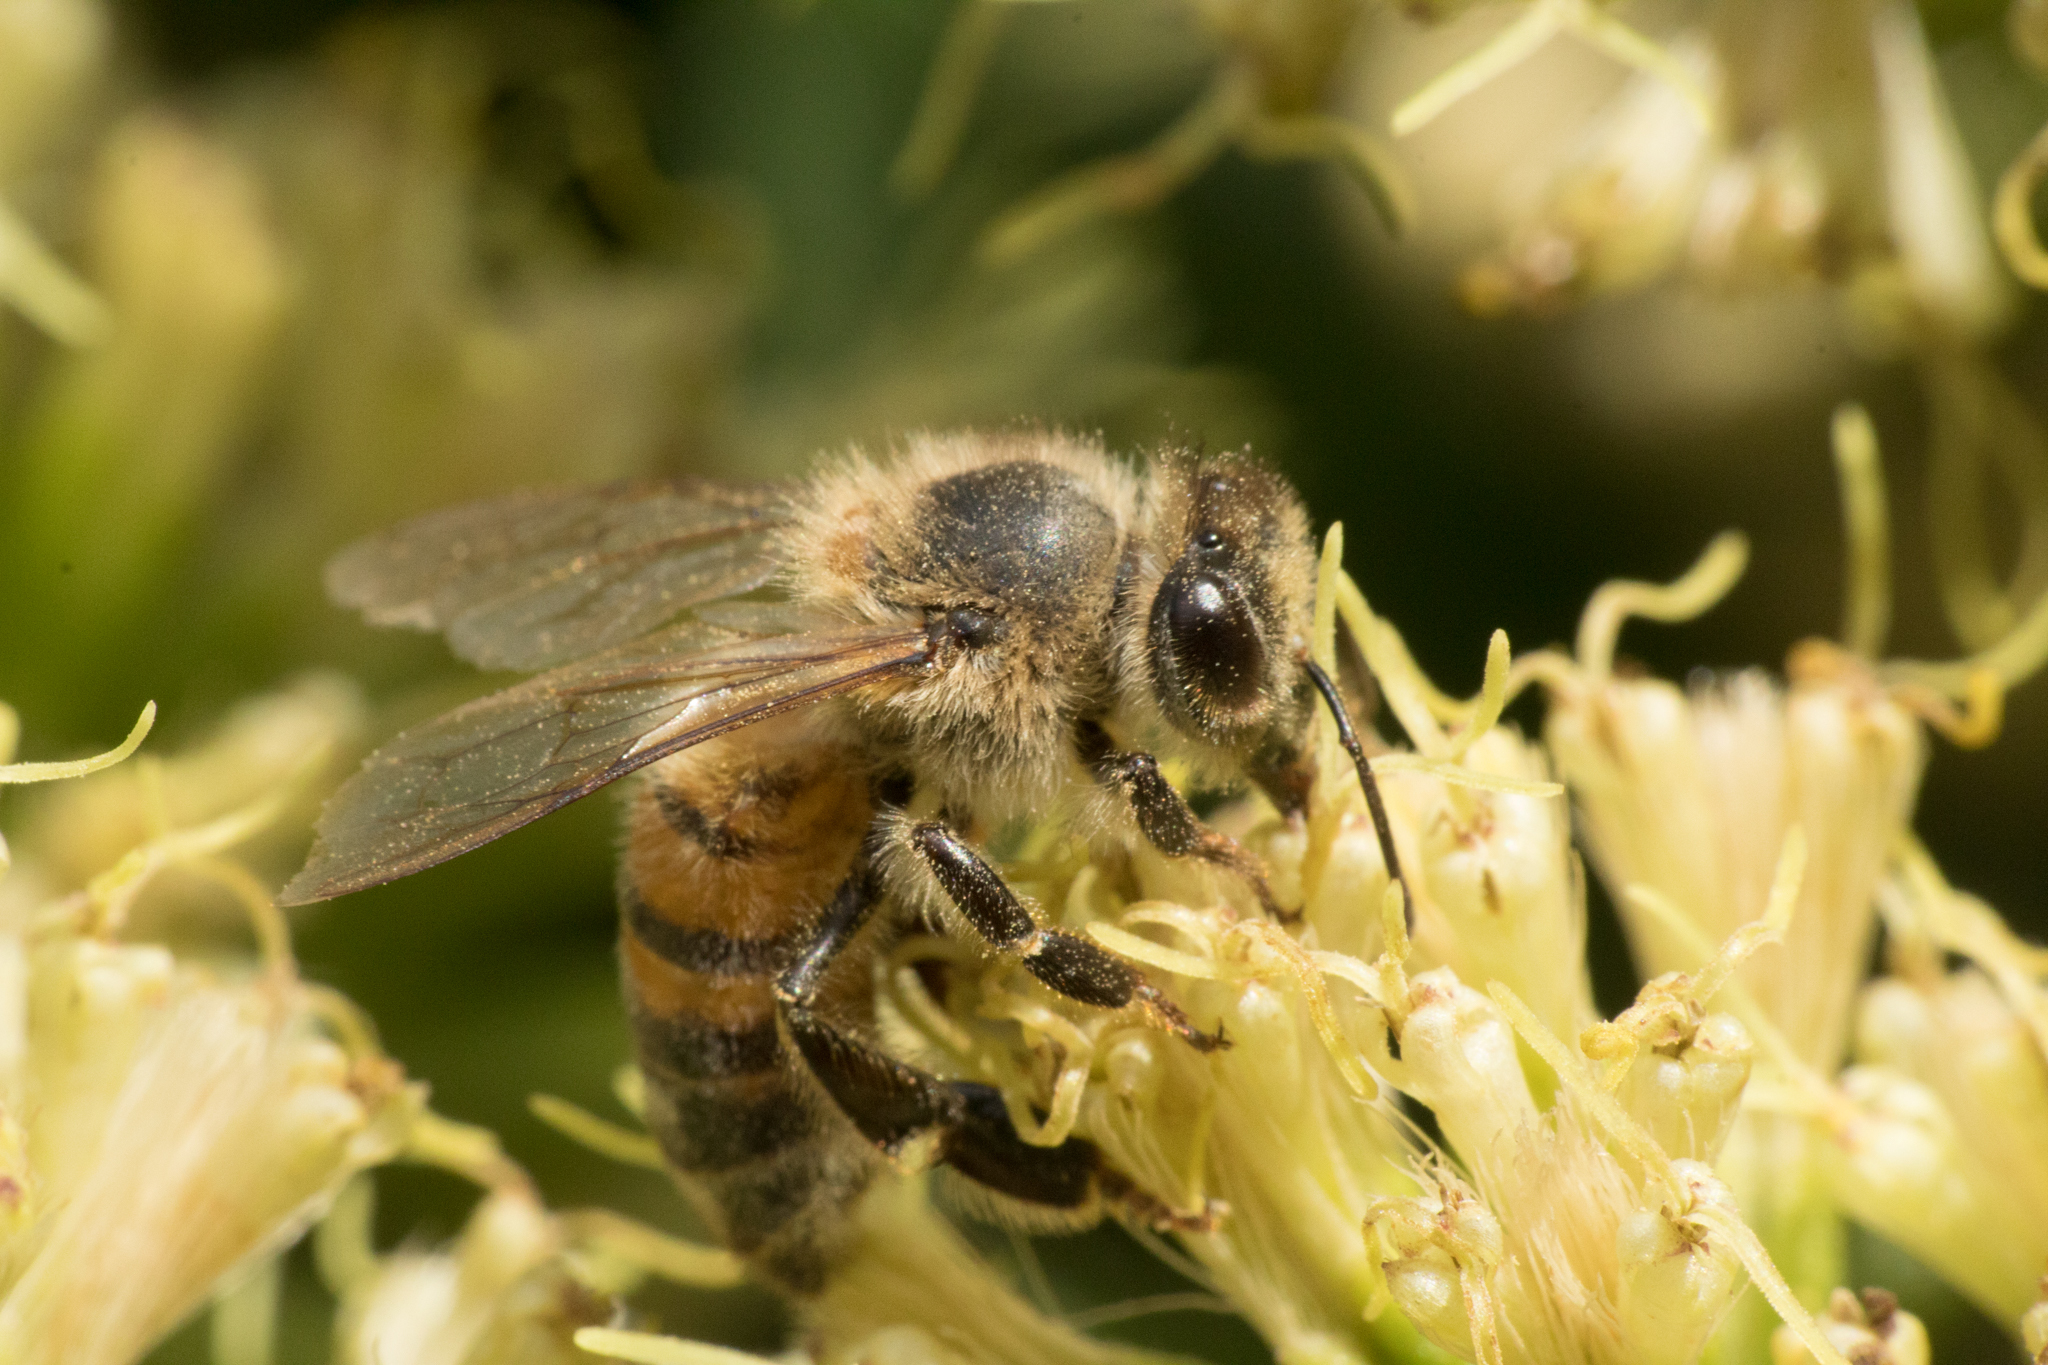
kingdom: Animalia
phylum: Arthropoda
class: Insecta
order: Hymenoptera
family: Apidae
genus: Apis
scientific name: Apis mellifera
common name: Honey bee
